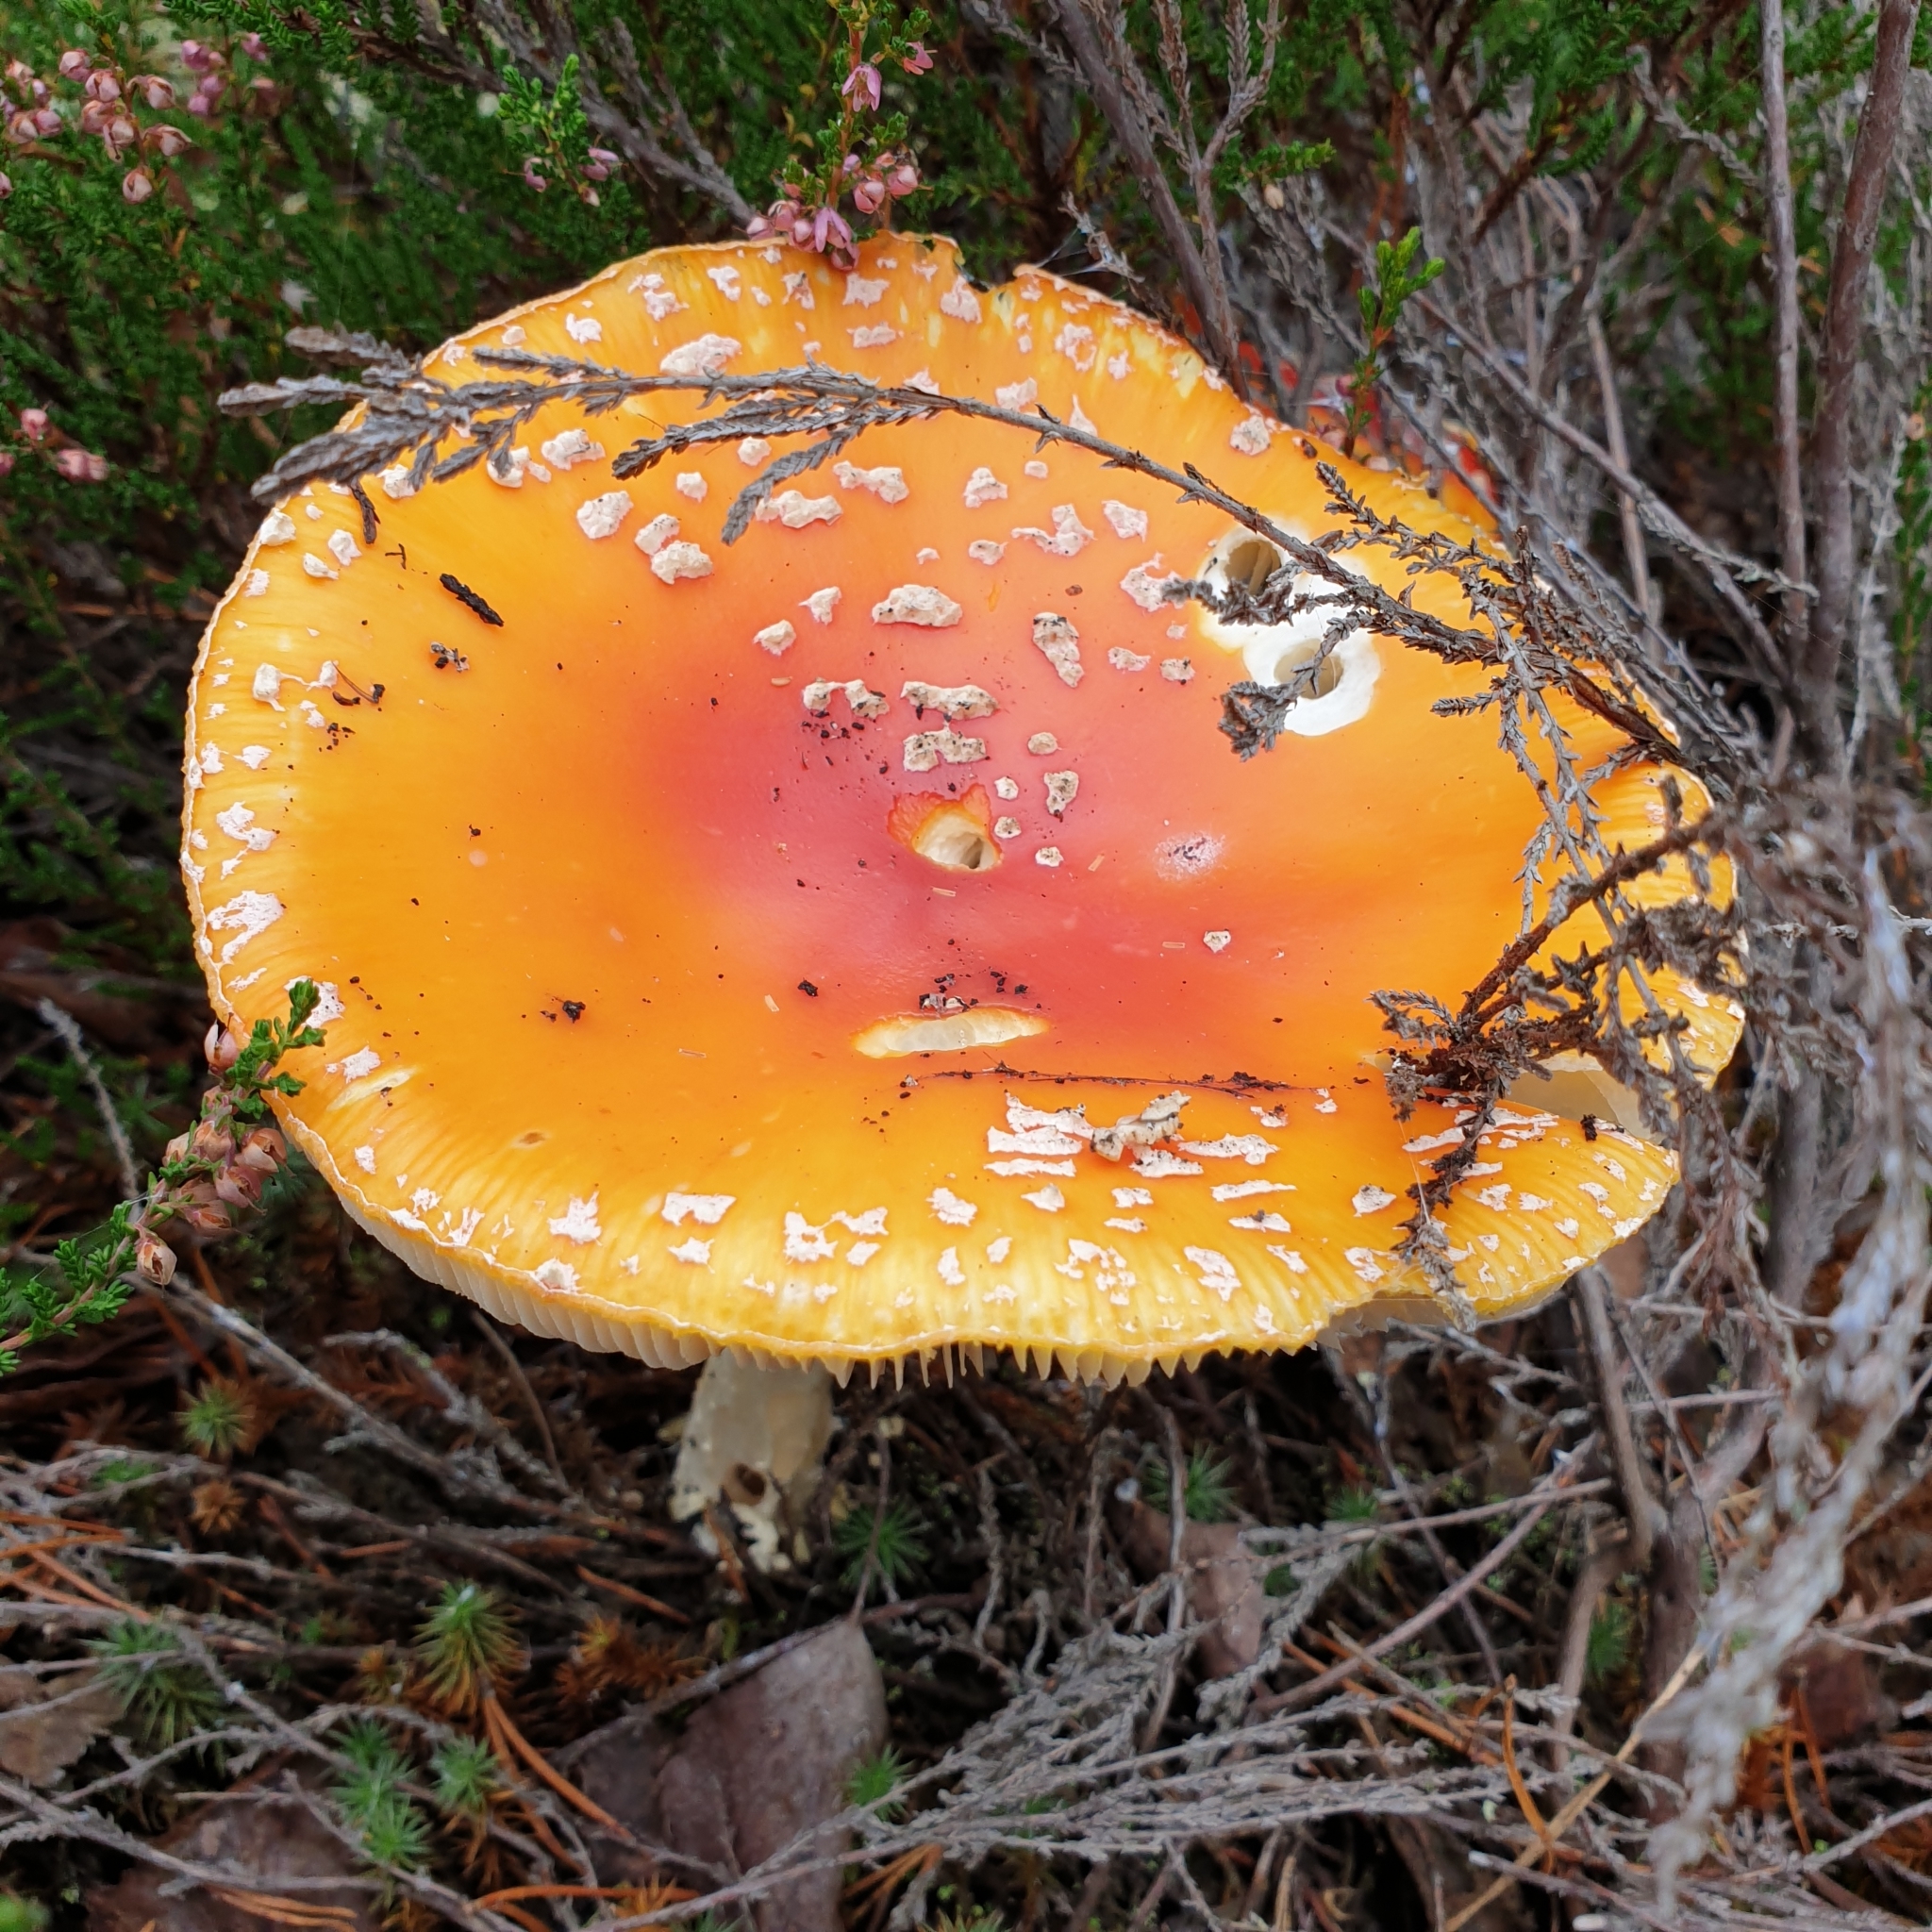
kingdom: Fungi
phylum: Basidiomycota
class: Agaricomycetes
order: Agaricales
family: Amanitaceae
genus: Amanita
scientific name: Amanita muscaria
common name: Fly agaric
